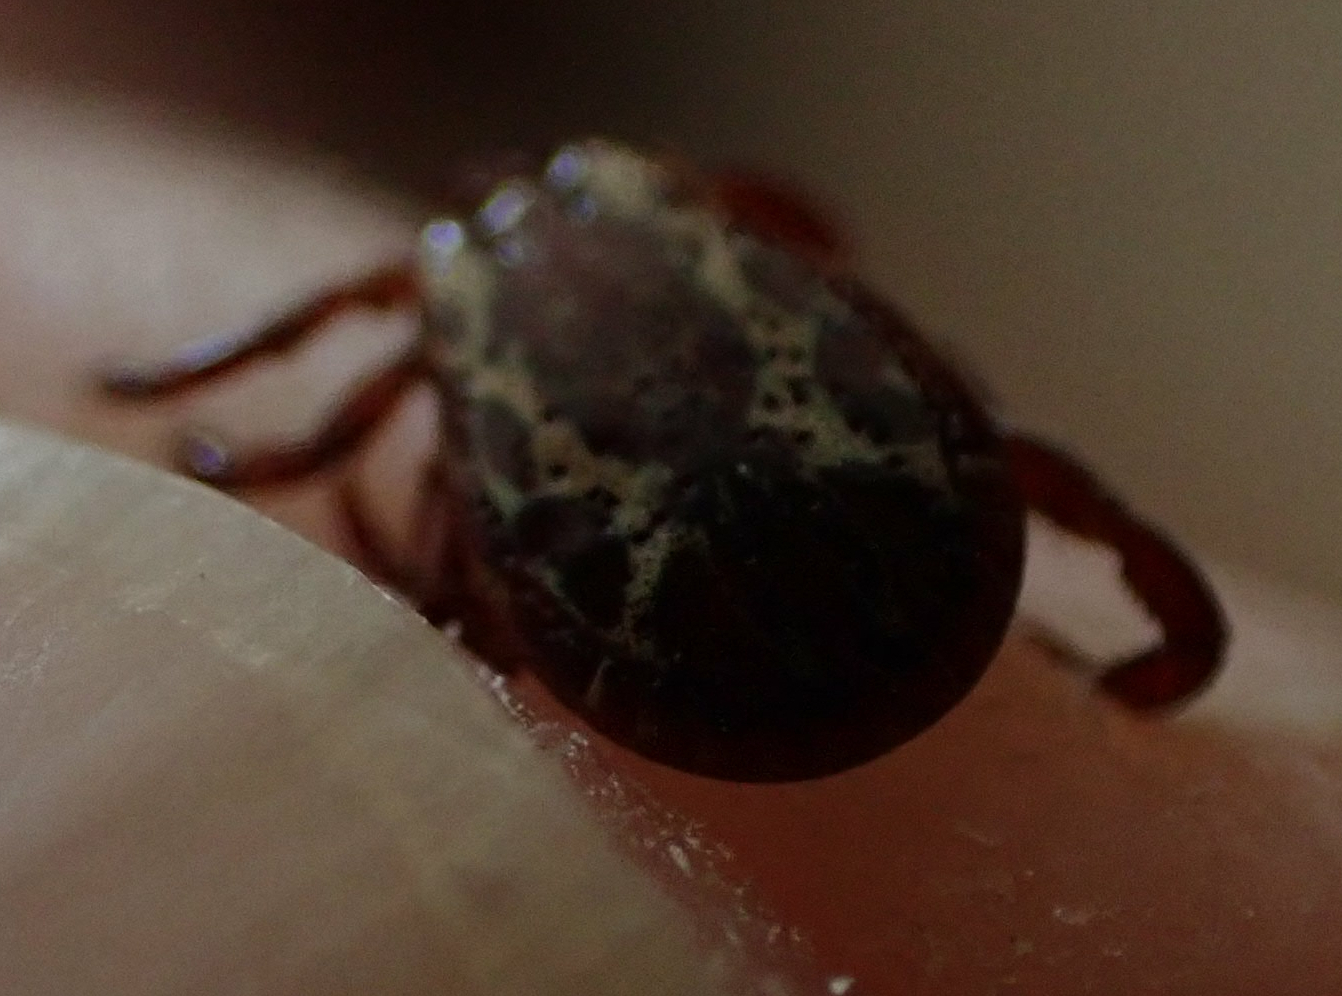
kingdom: Animalia
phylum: Arthropoda
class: Arachnida
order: Ixodida
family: Ixodidae
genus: Dermacentor
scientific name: Dermacentor variabilis
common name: American dog tick
